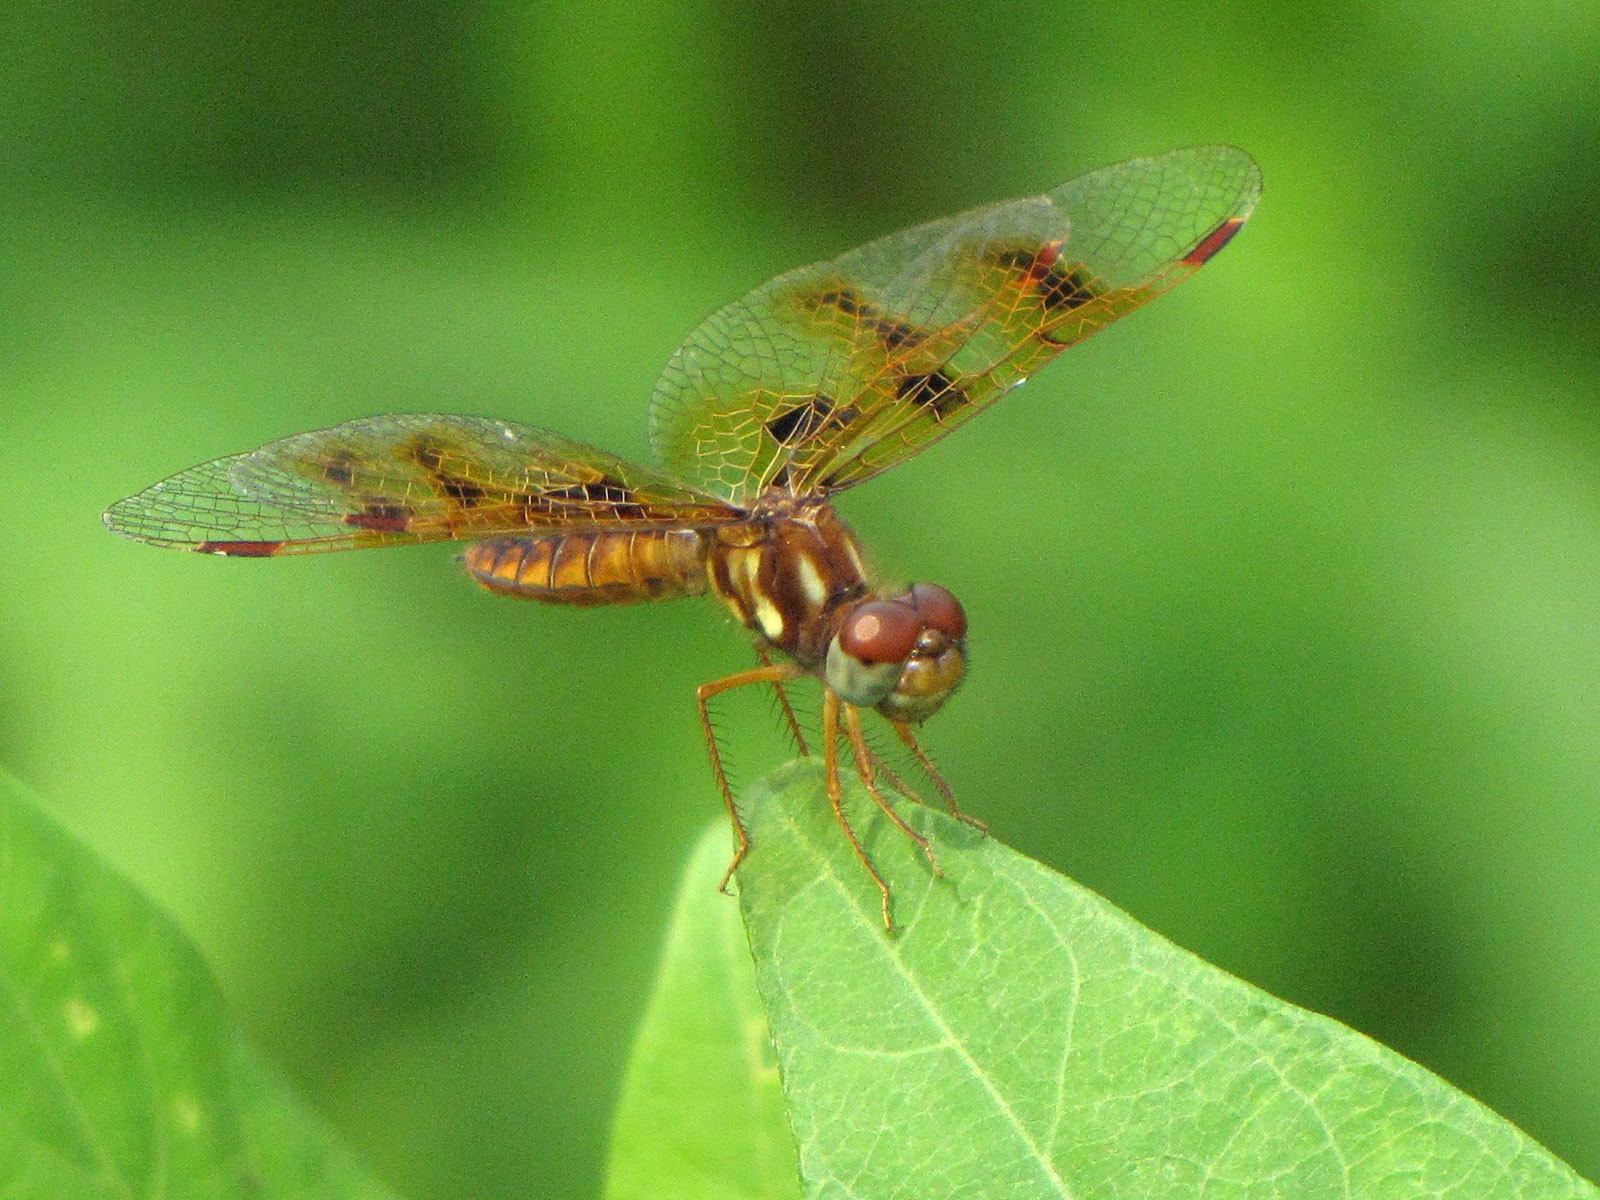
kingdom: Animalia
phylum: Arthropoda
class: Insecta
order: Odonata
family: Libellulidae
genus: Perithemis
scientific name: Perithemis tenera
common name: Eastern amberwing
